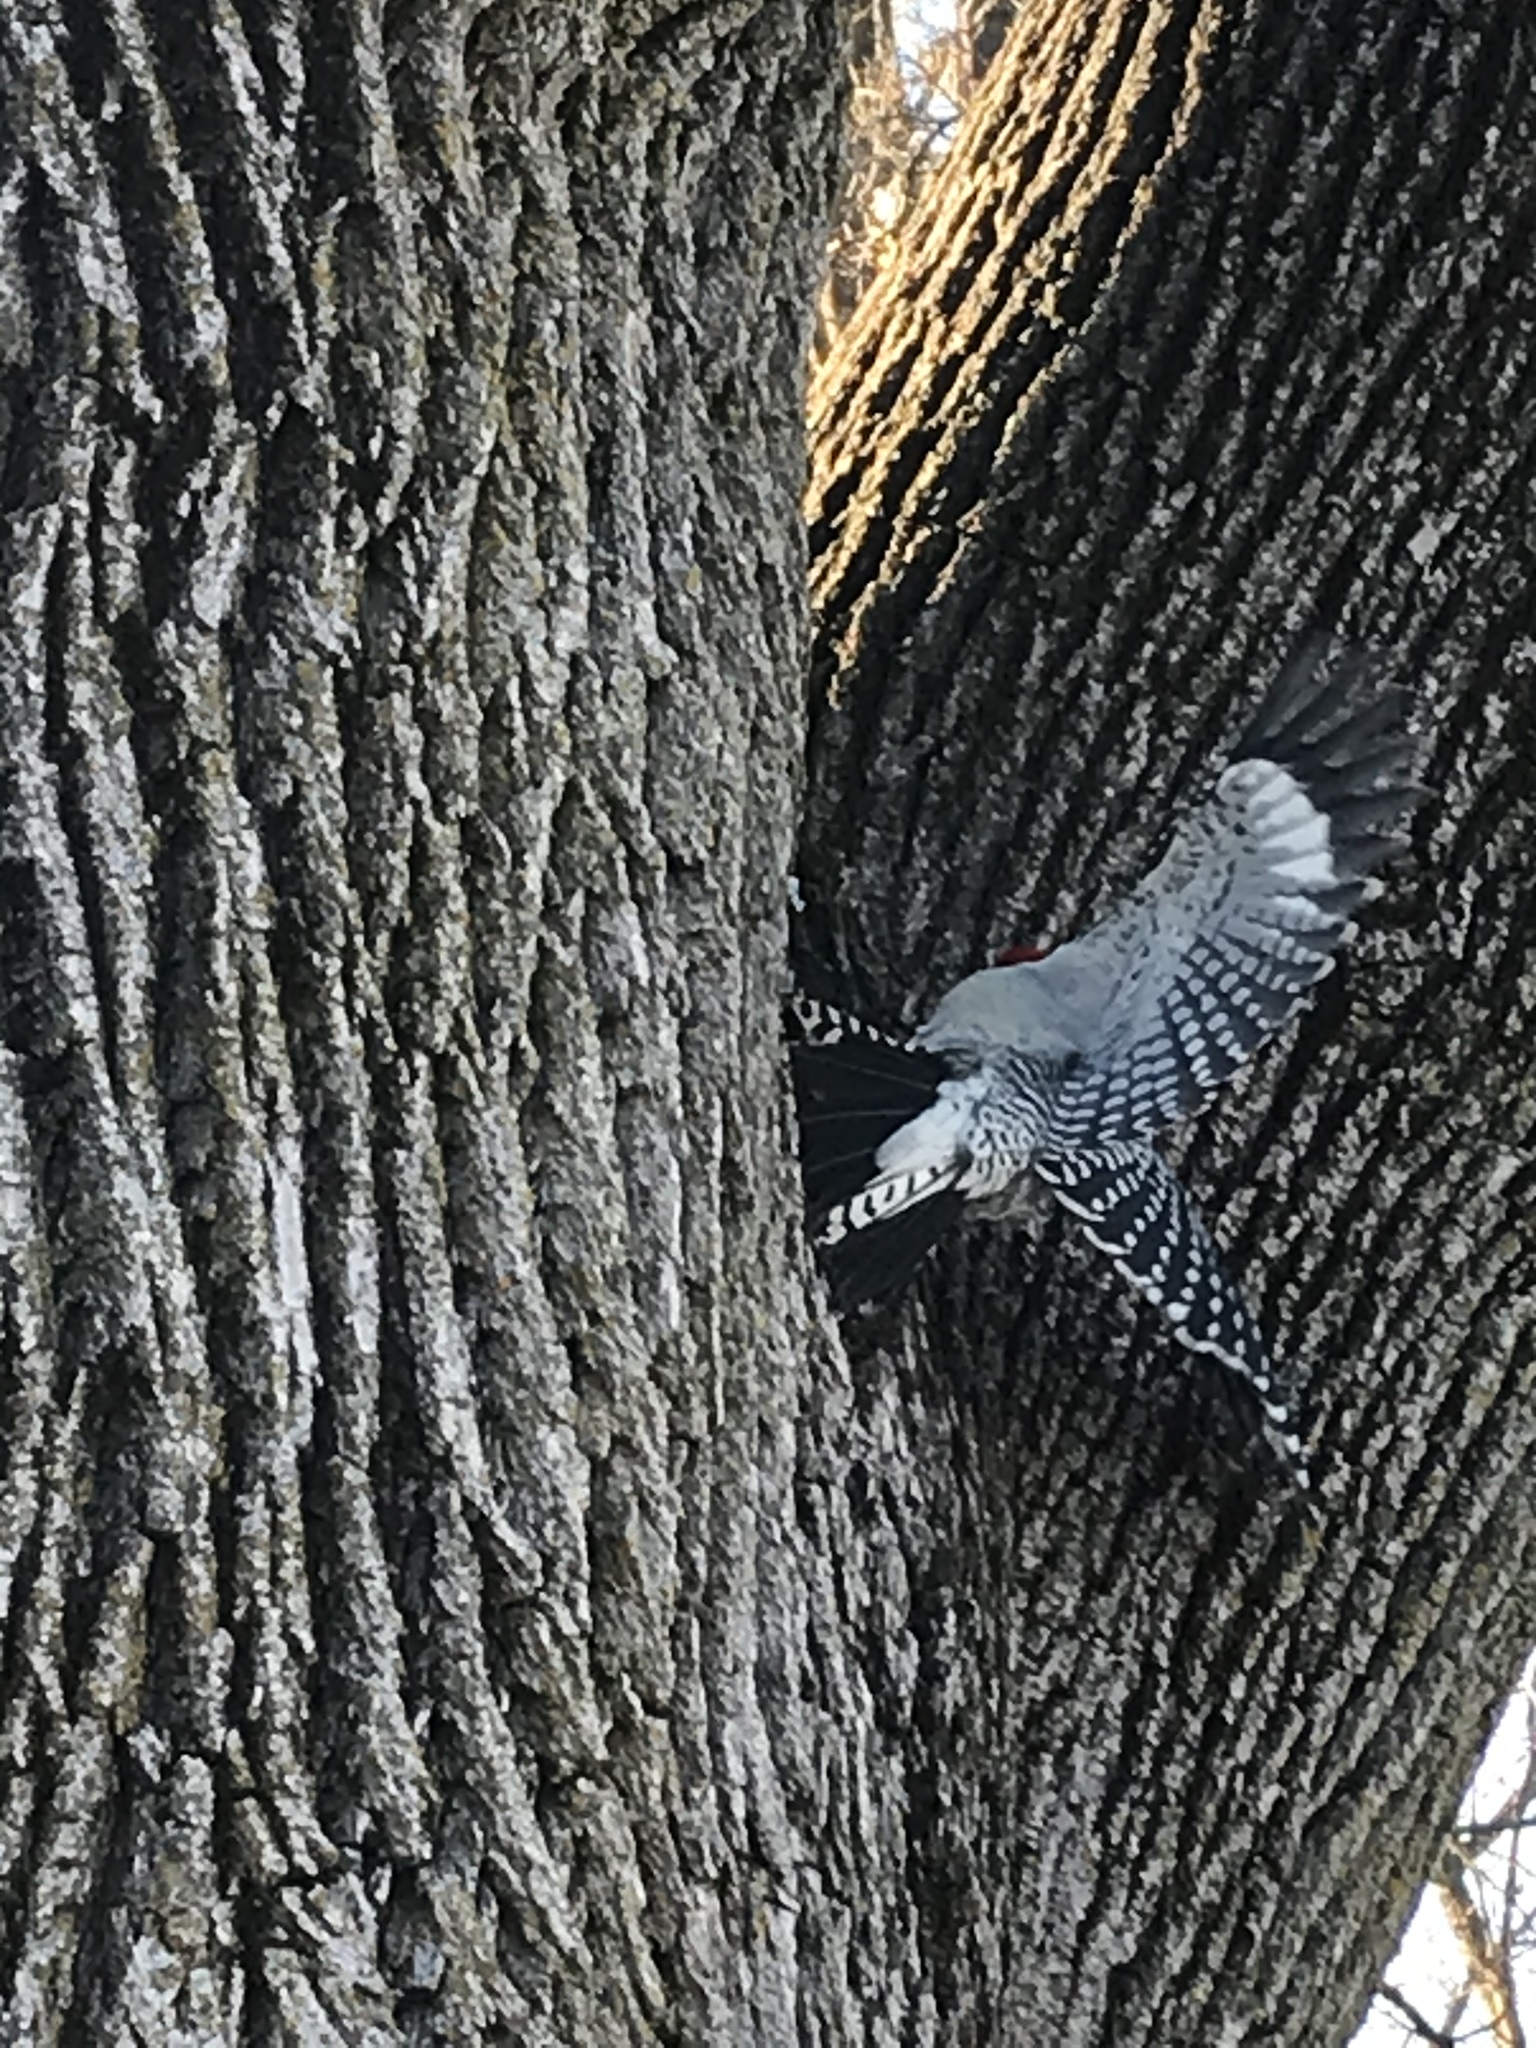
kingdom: Animalia
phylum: Chordata
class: Aves
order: Piciformes
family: Picidae
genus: Melanerpes
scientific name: Melanerpes carolinus
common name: Red-bellied woodpecker
